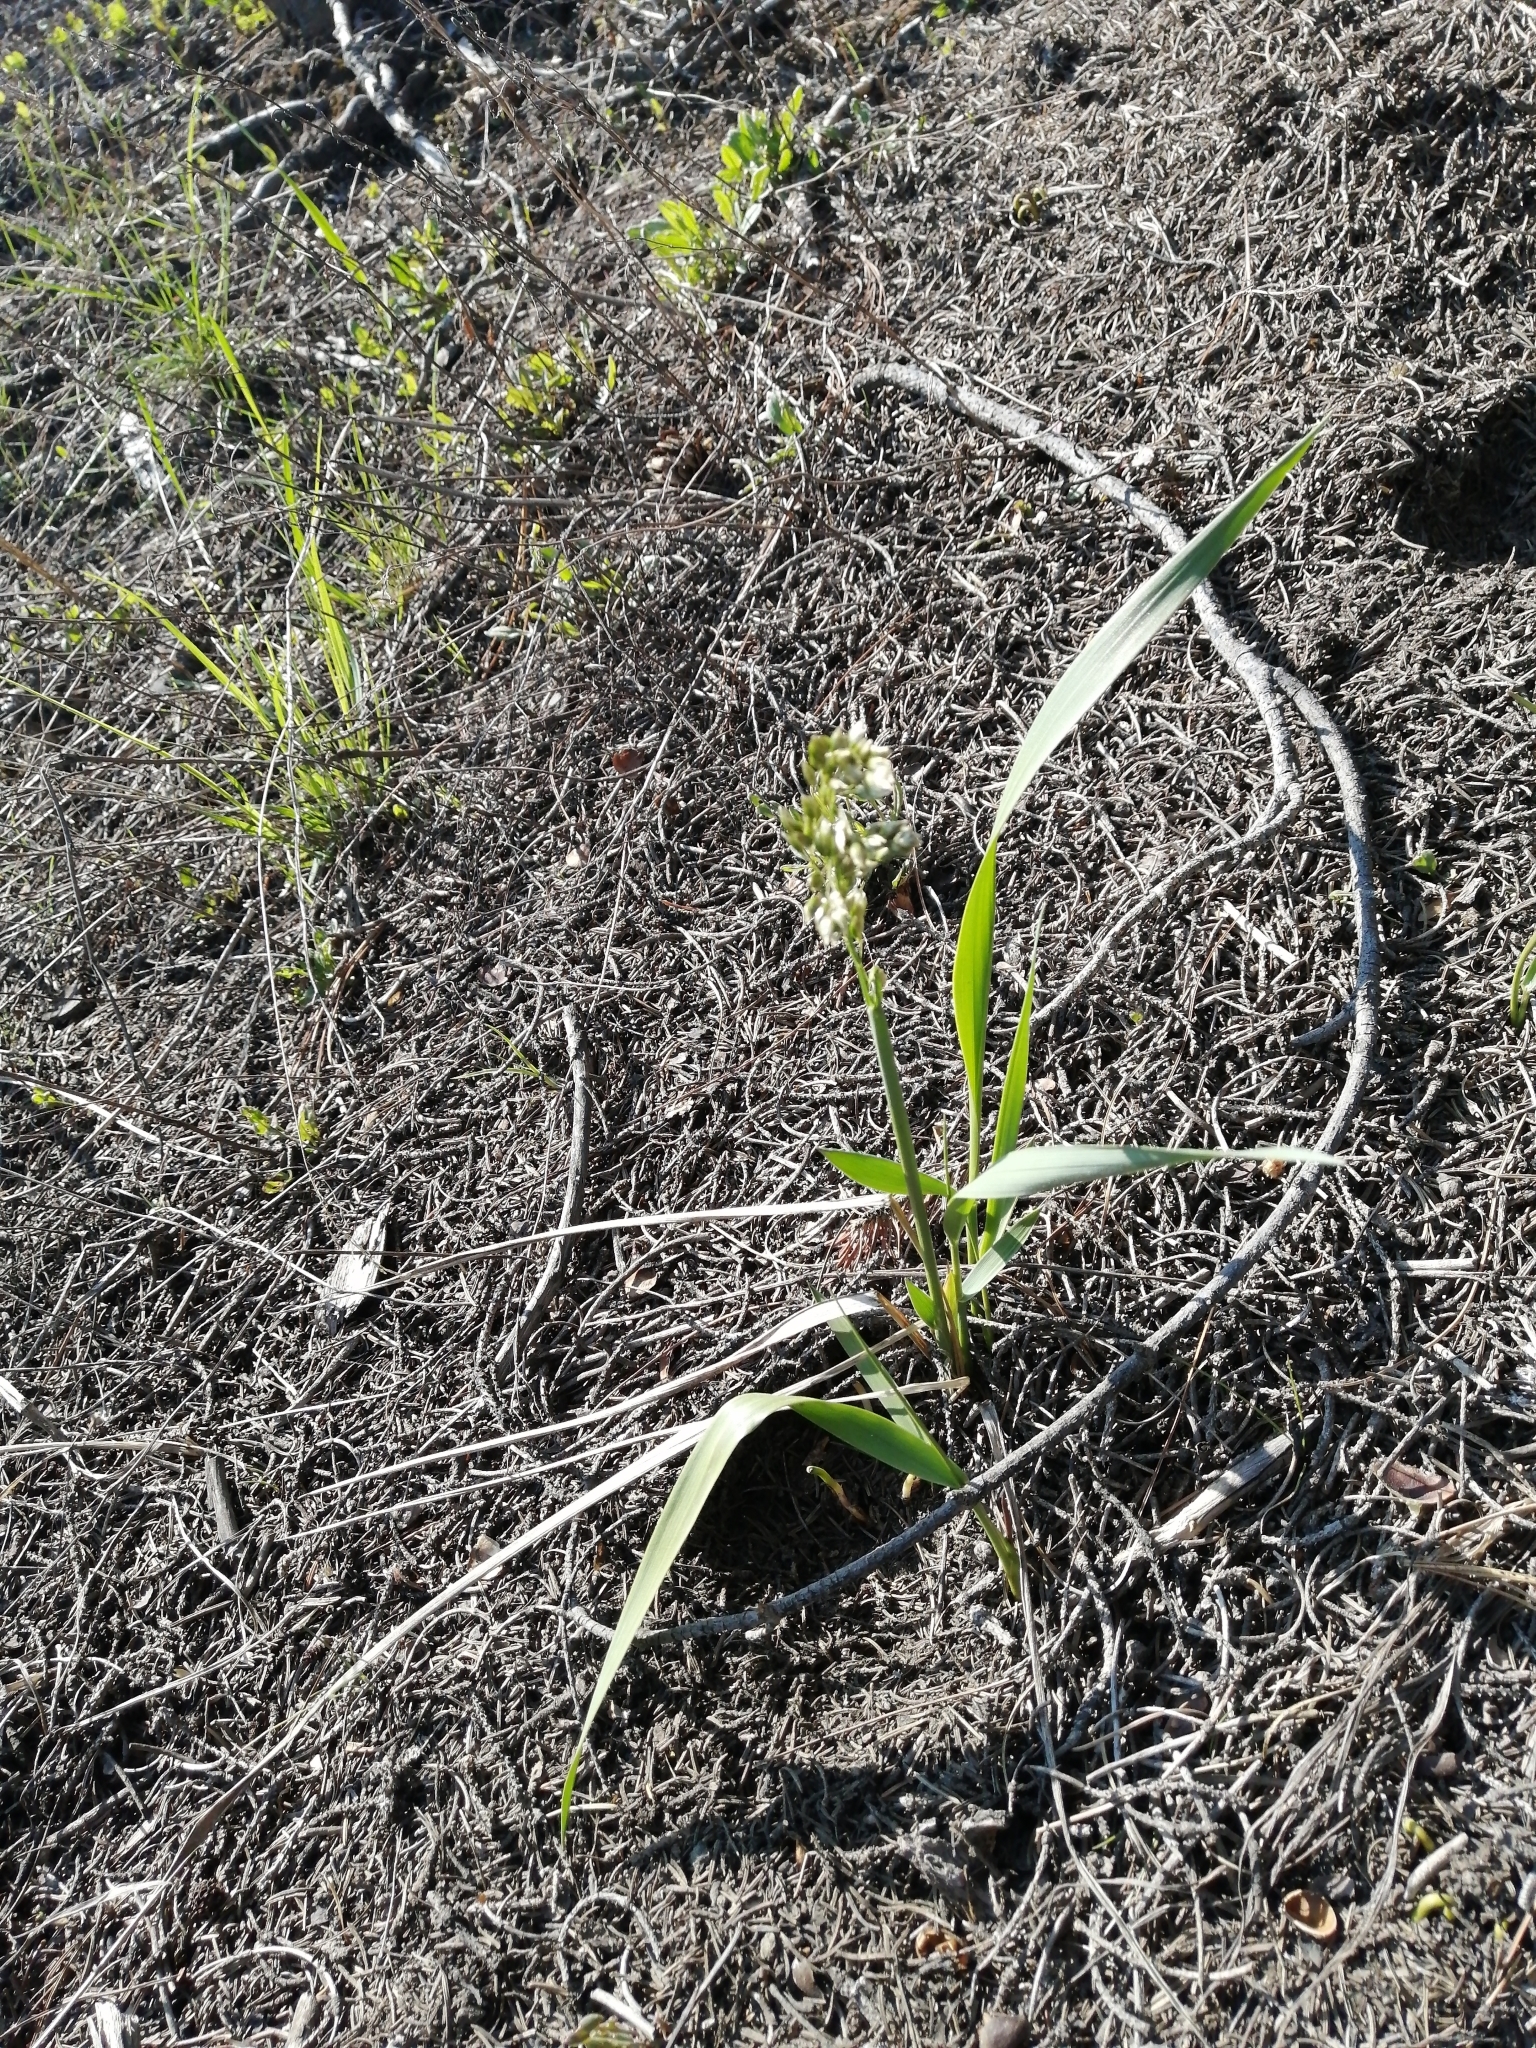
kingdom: Plantae
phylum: Tracheophyta
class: Liliopsida
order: Poales
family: Poaceae
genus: Anthoxanthum
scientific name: Anthoxanthum nitens
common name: Holy grass
